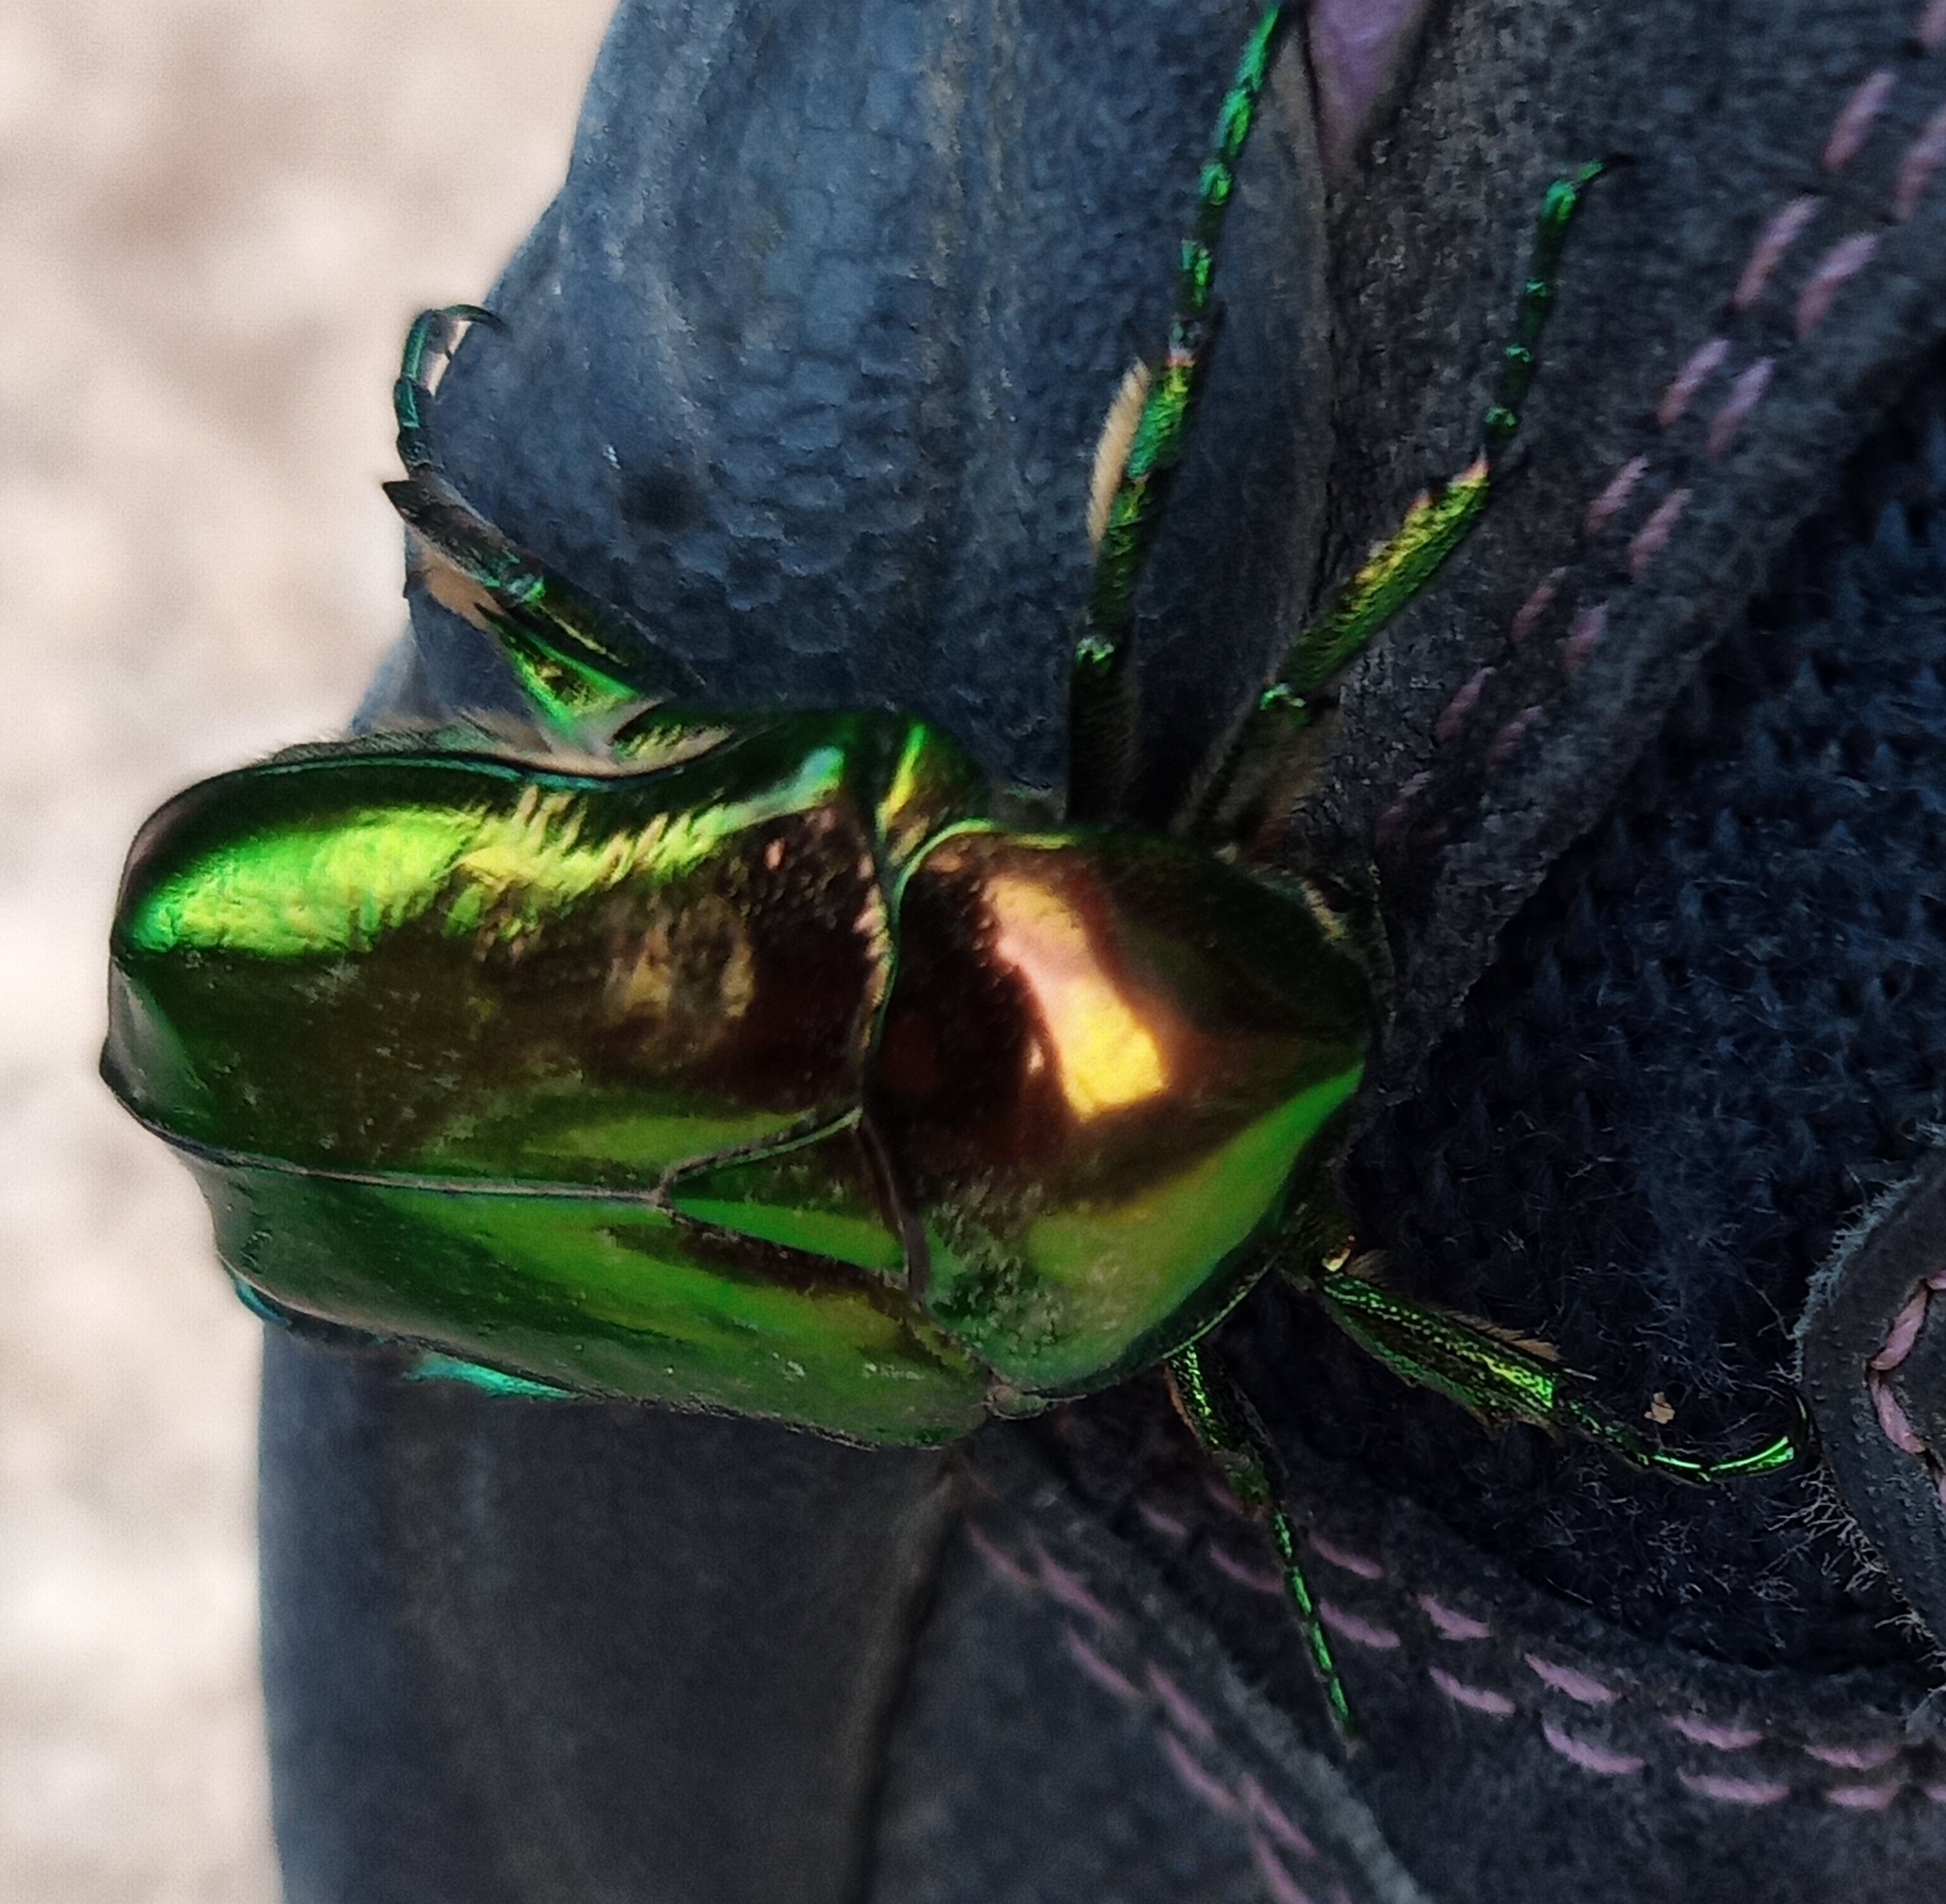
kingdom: Animalia
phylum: Arthropoda
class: Insecta
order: Coleoptera
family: Scarabaeidae
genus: Protaetia
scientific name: Protaetia speciosissima
